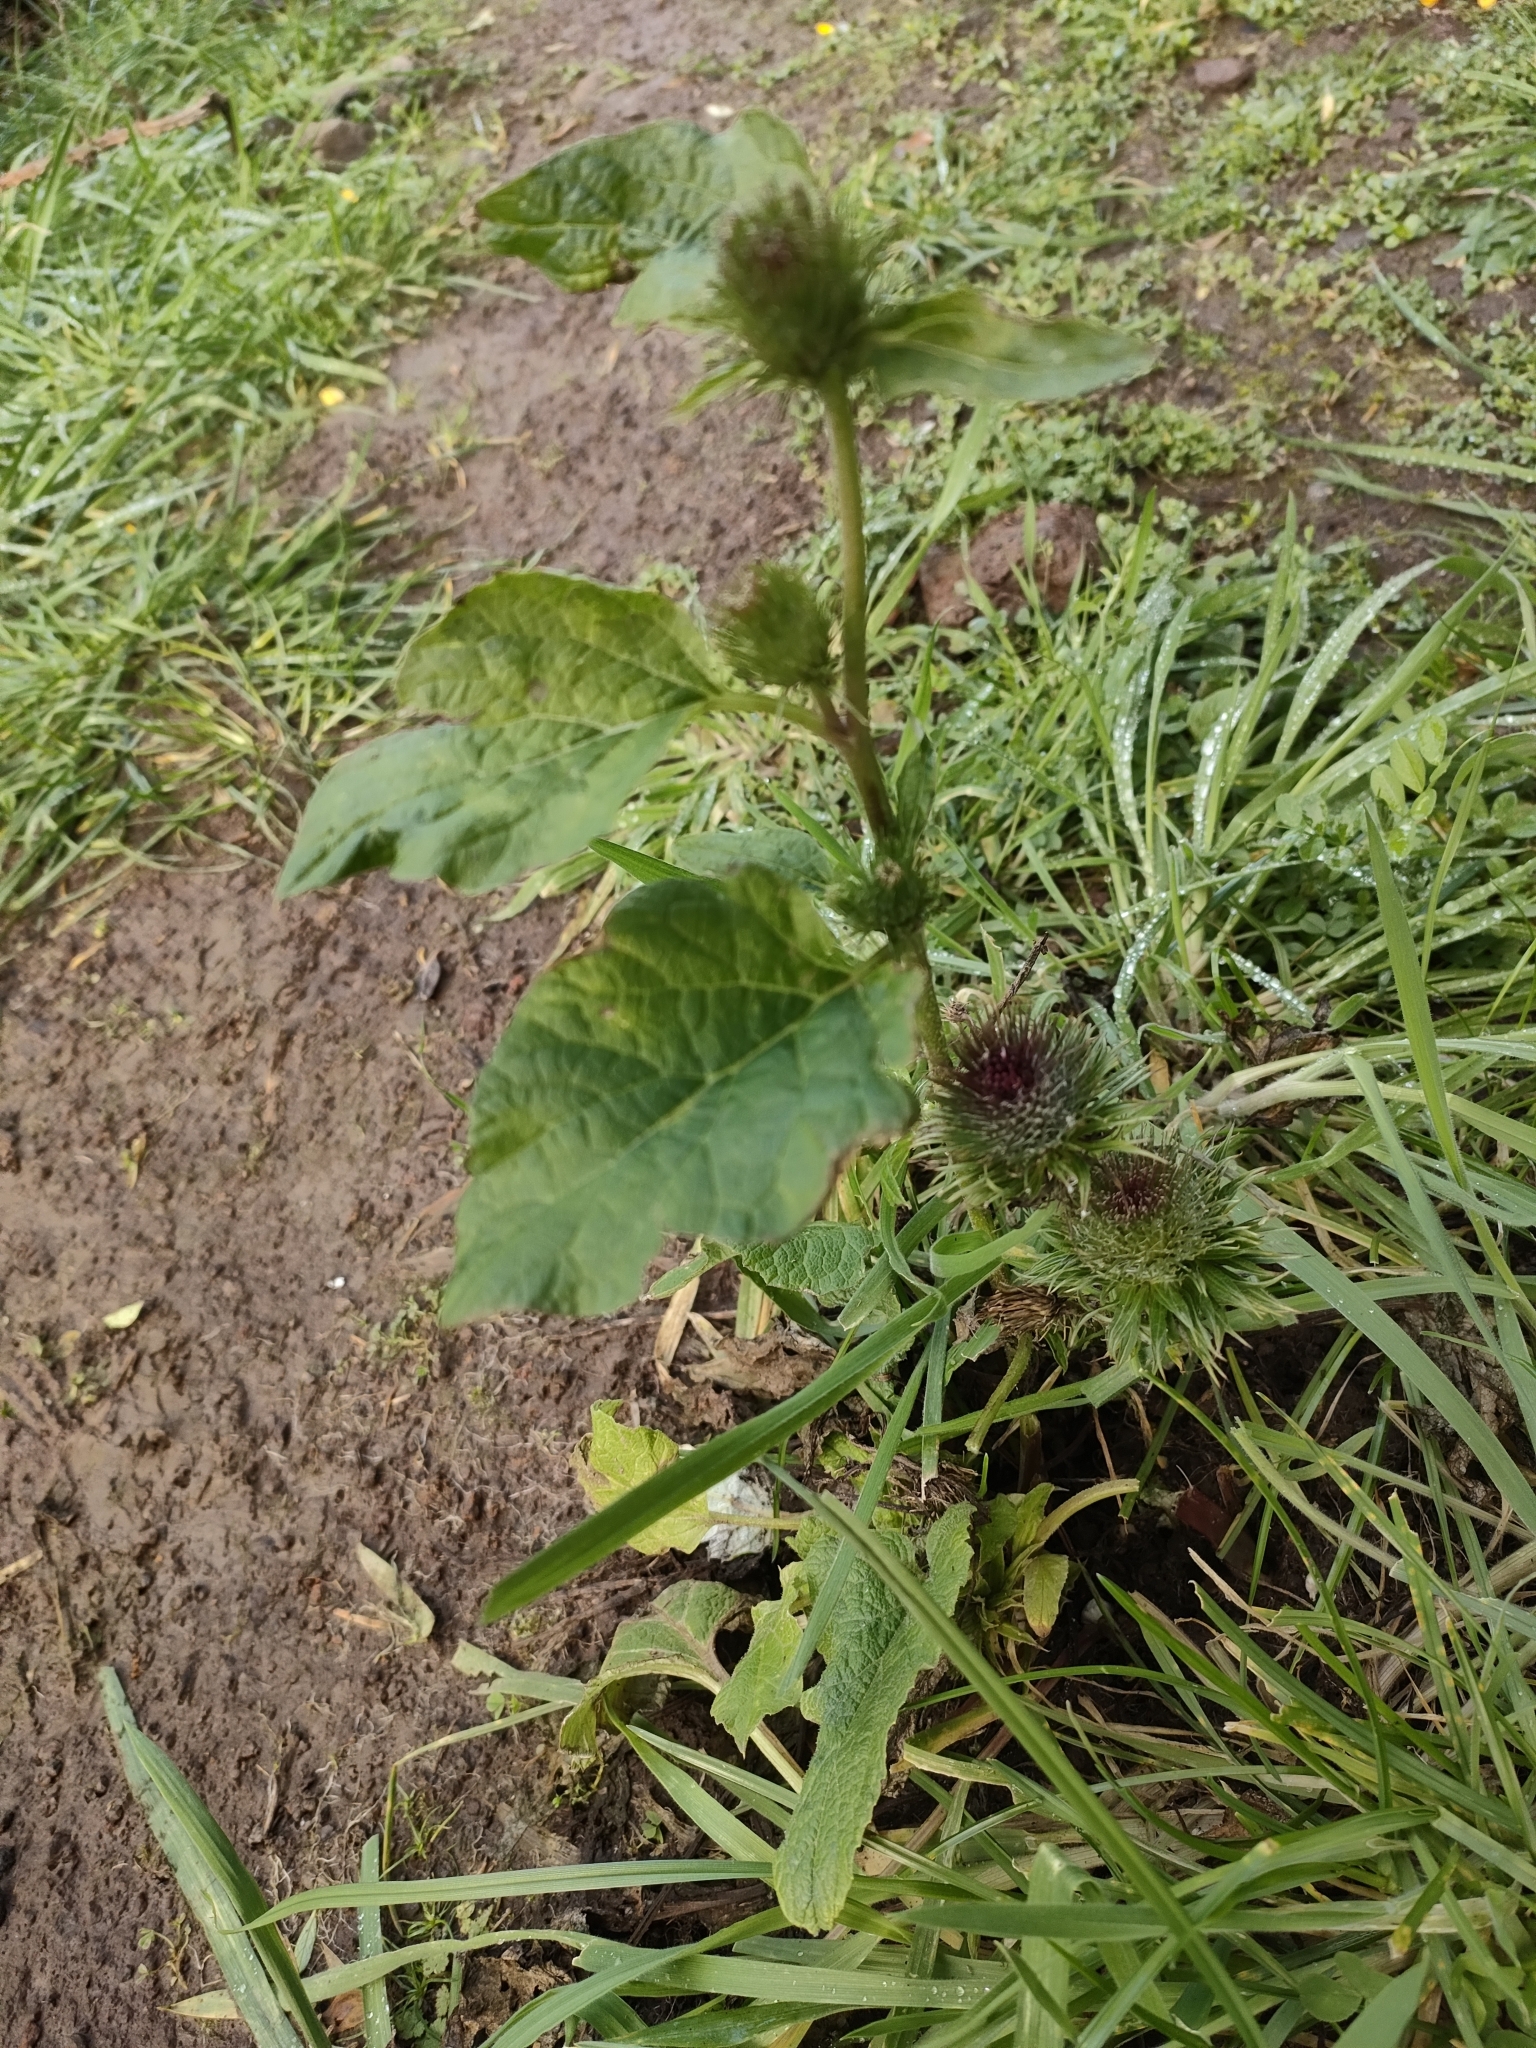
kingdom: Plantae
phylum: Tracheophyta
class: Magnoliopsida
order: Asterales
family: Asteraceae
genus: Arctium
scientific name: Arctium minus
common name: Lesser burdock
